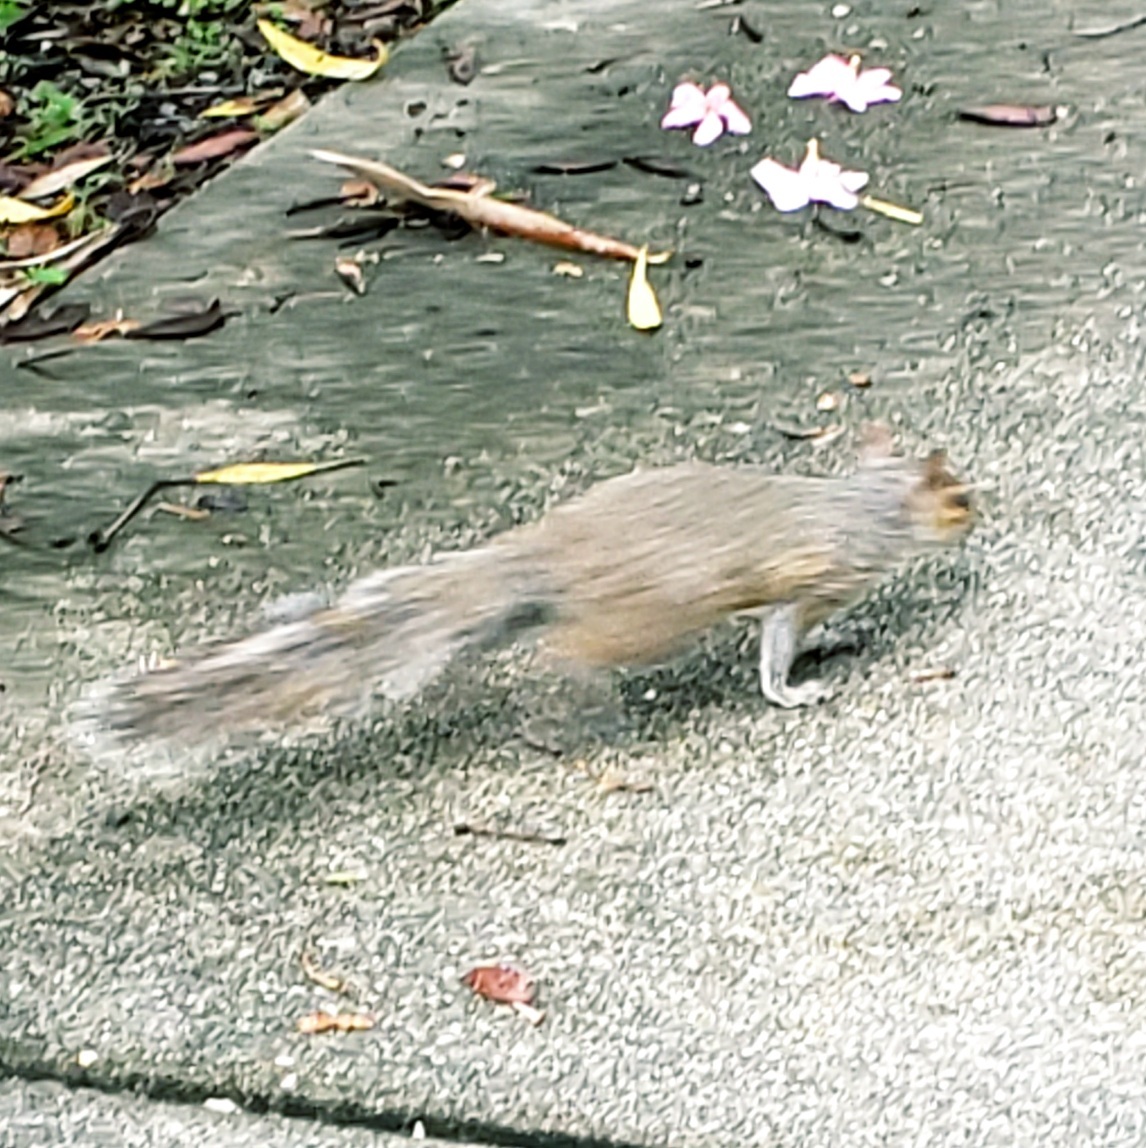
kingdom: Animalia
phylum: Chordata
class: Mammalia
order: Rodentia
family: Sciuridae
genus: Sciurus
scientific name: Sciurus carolinensis
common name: Eastern gray squirrel
